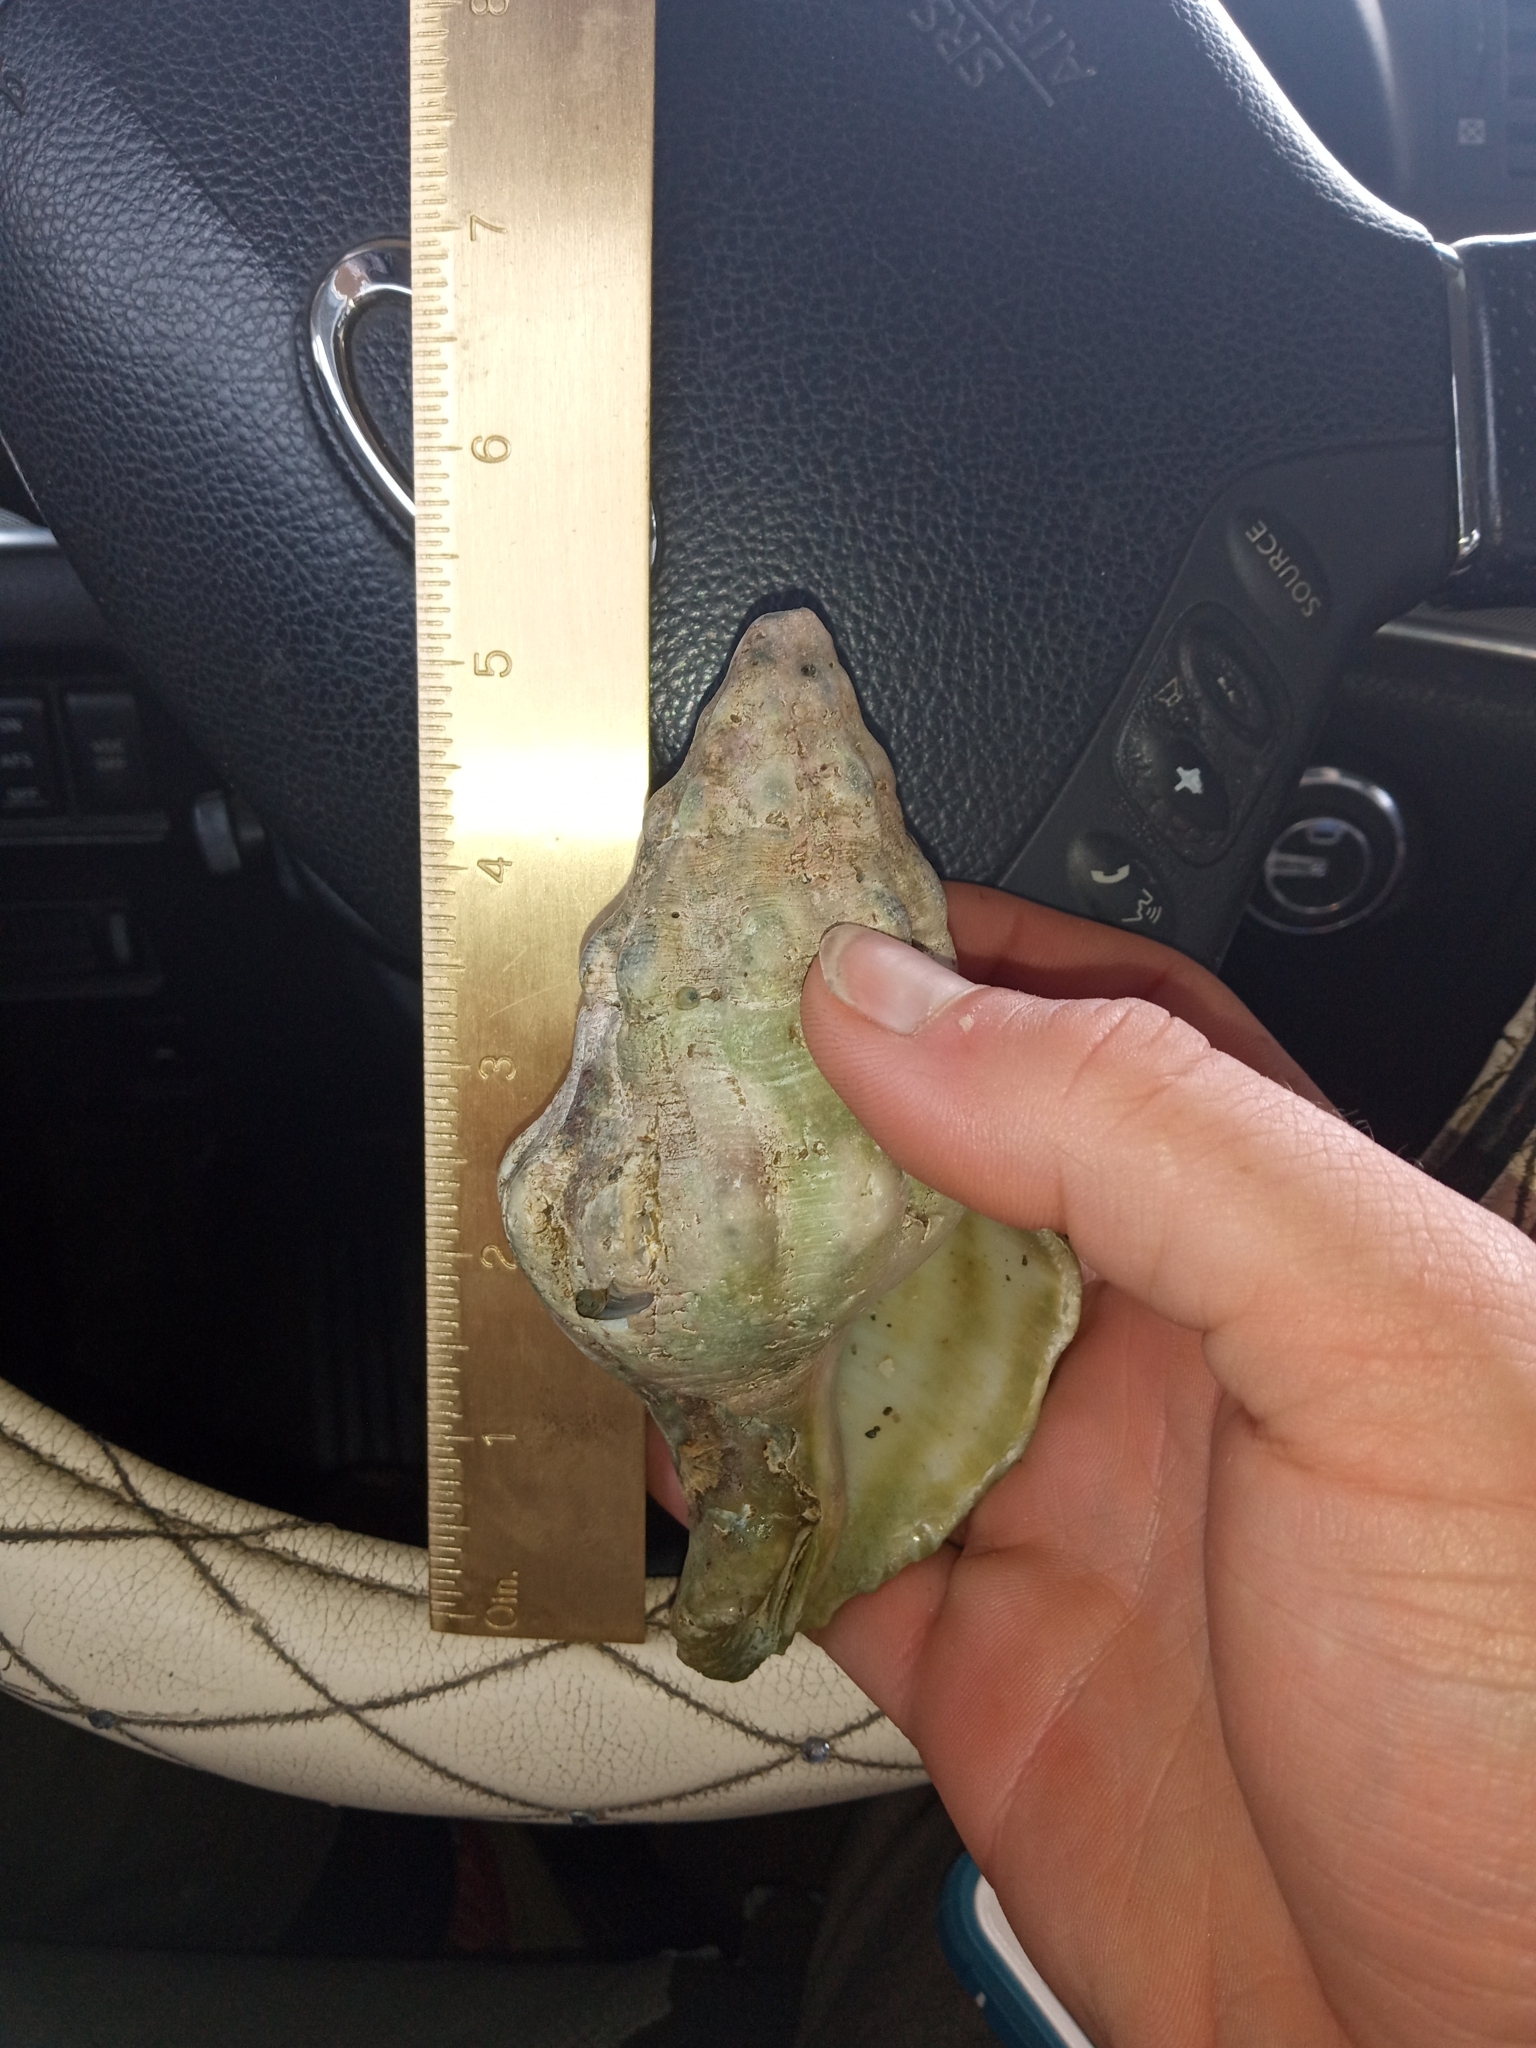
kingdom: Animalia
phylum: Mollusca
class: Gastropoda
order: Neogastropoda
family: Austrosiphonidae
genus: Kelletia
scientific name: Kelletia kelletii
